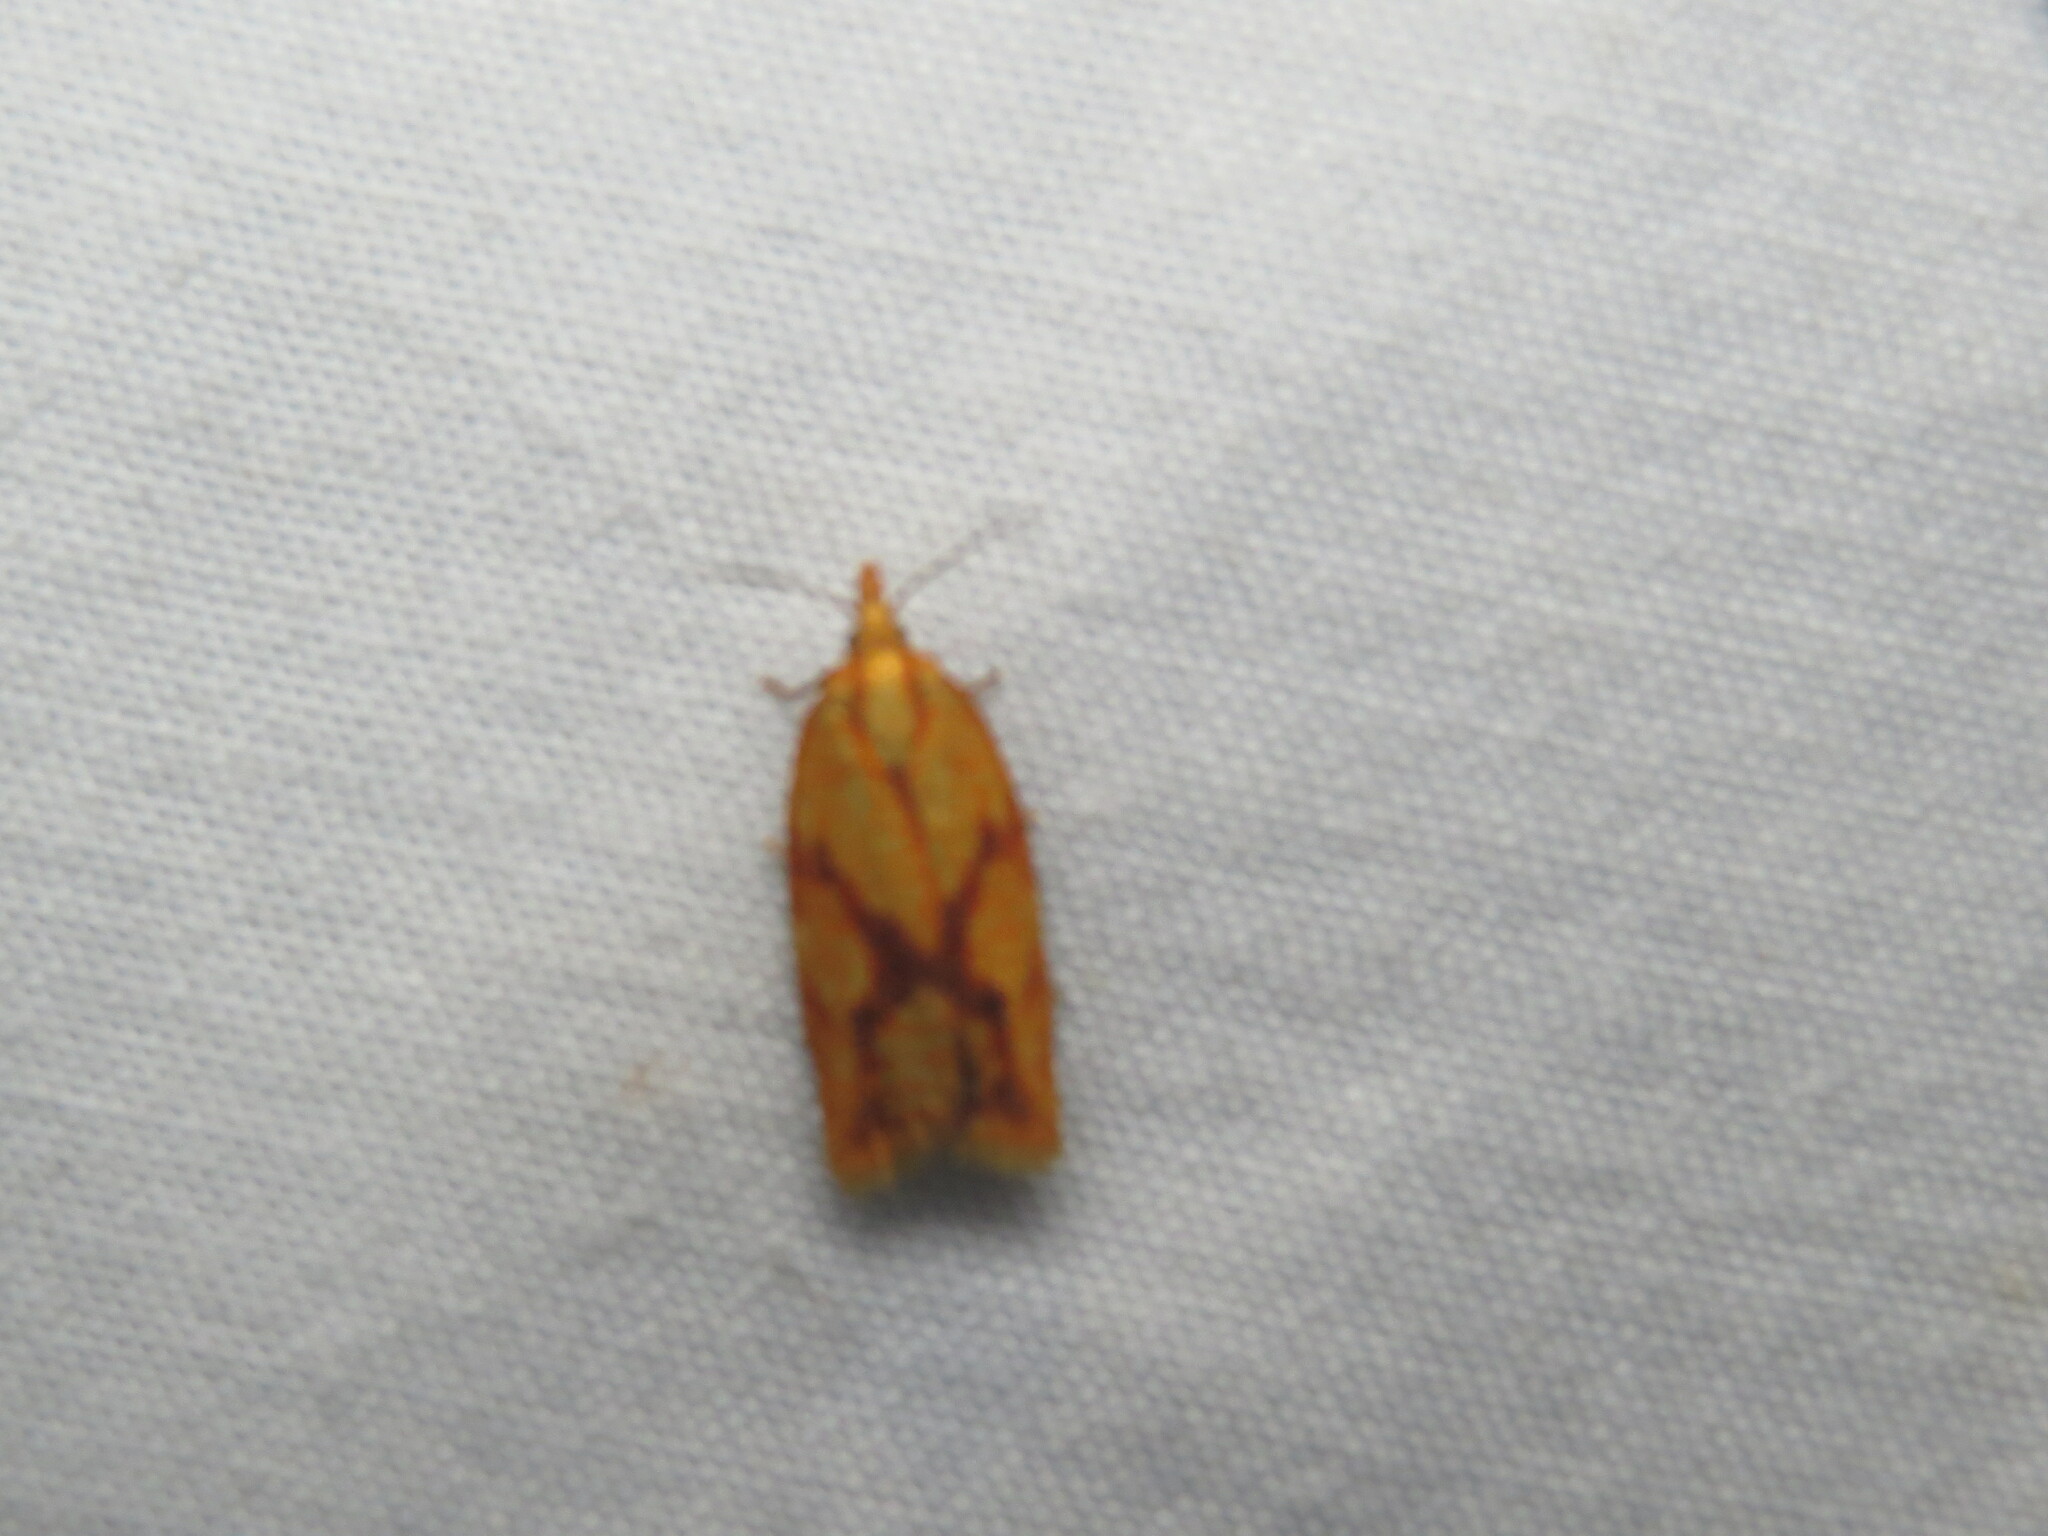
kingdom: Animalia
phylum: Arthropoda
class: Insecta
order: Lepidoptera
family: Tortricidae
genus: Sparganothis
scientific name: Sparganothis sulfureana
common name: Sparganothis fruitworm moth
